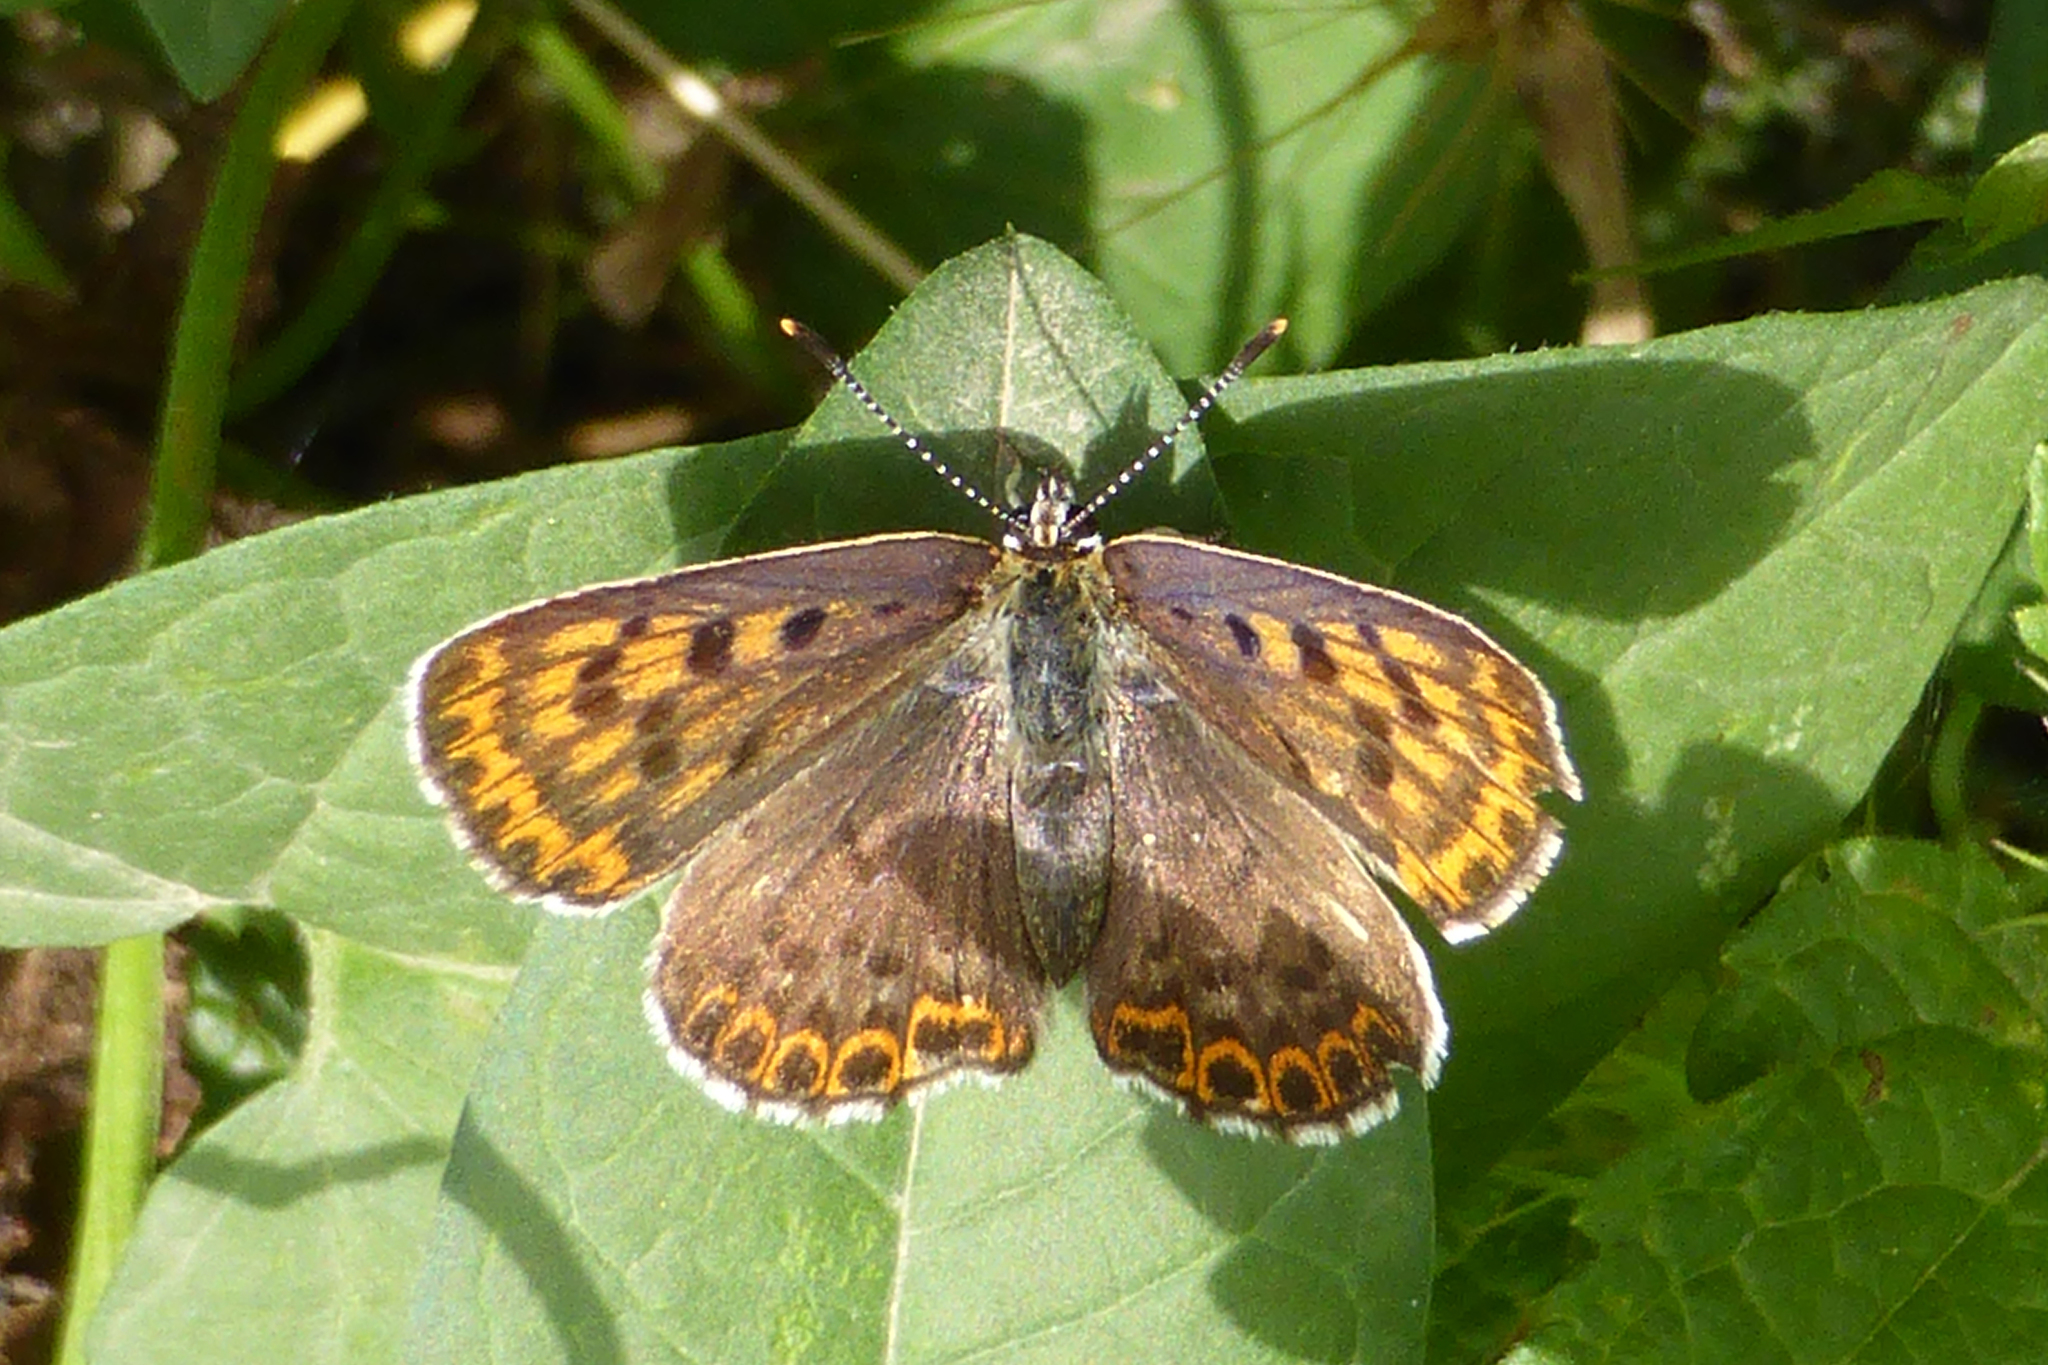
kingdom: Animalia
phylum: Arthropoda
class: Insecta
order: Lepidoptera
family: Lycaenidae
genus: Loweia
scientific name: Loweia tityrus
